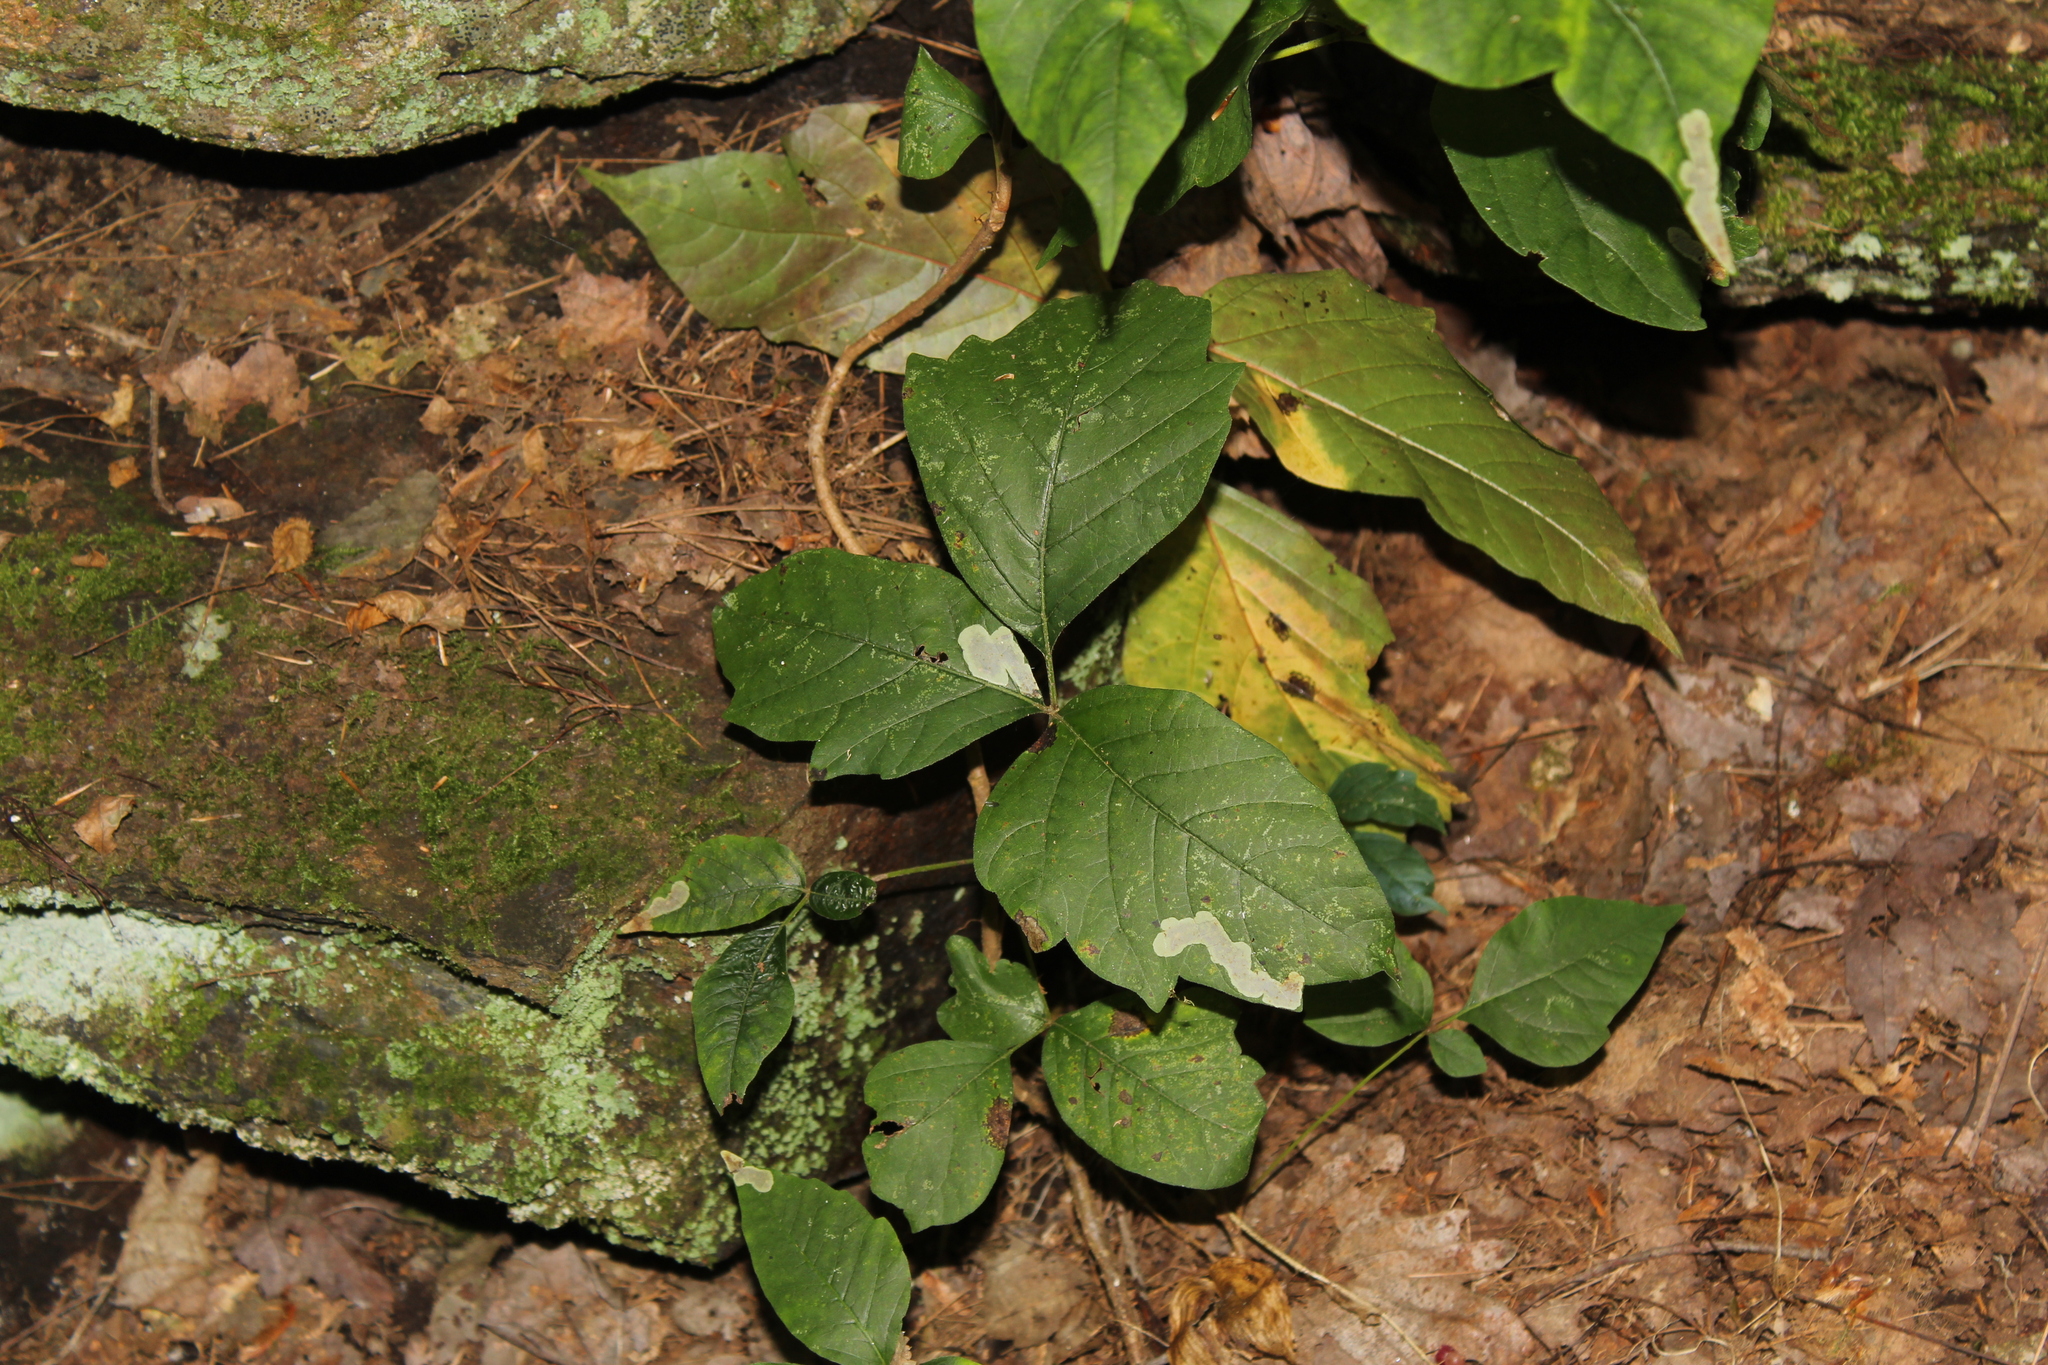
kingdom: Animalia
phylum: Arthropoda
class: Insecta
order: Lepidoptera
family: Gracillariidae
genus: Cameraria
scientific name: Cameraria guttifinitella
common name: Poison ivy leaf-miner moth
